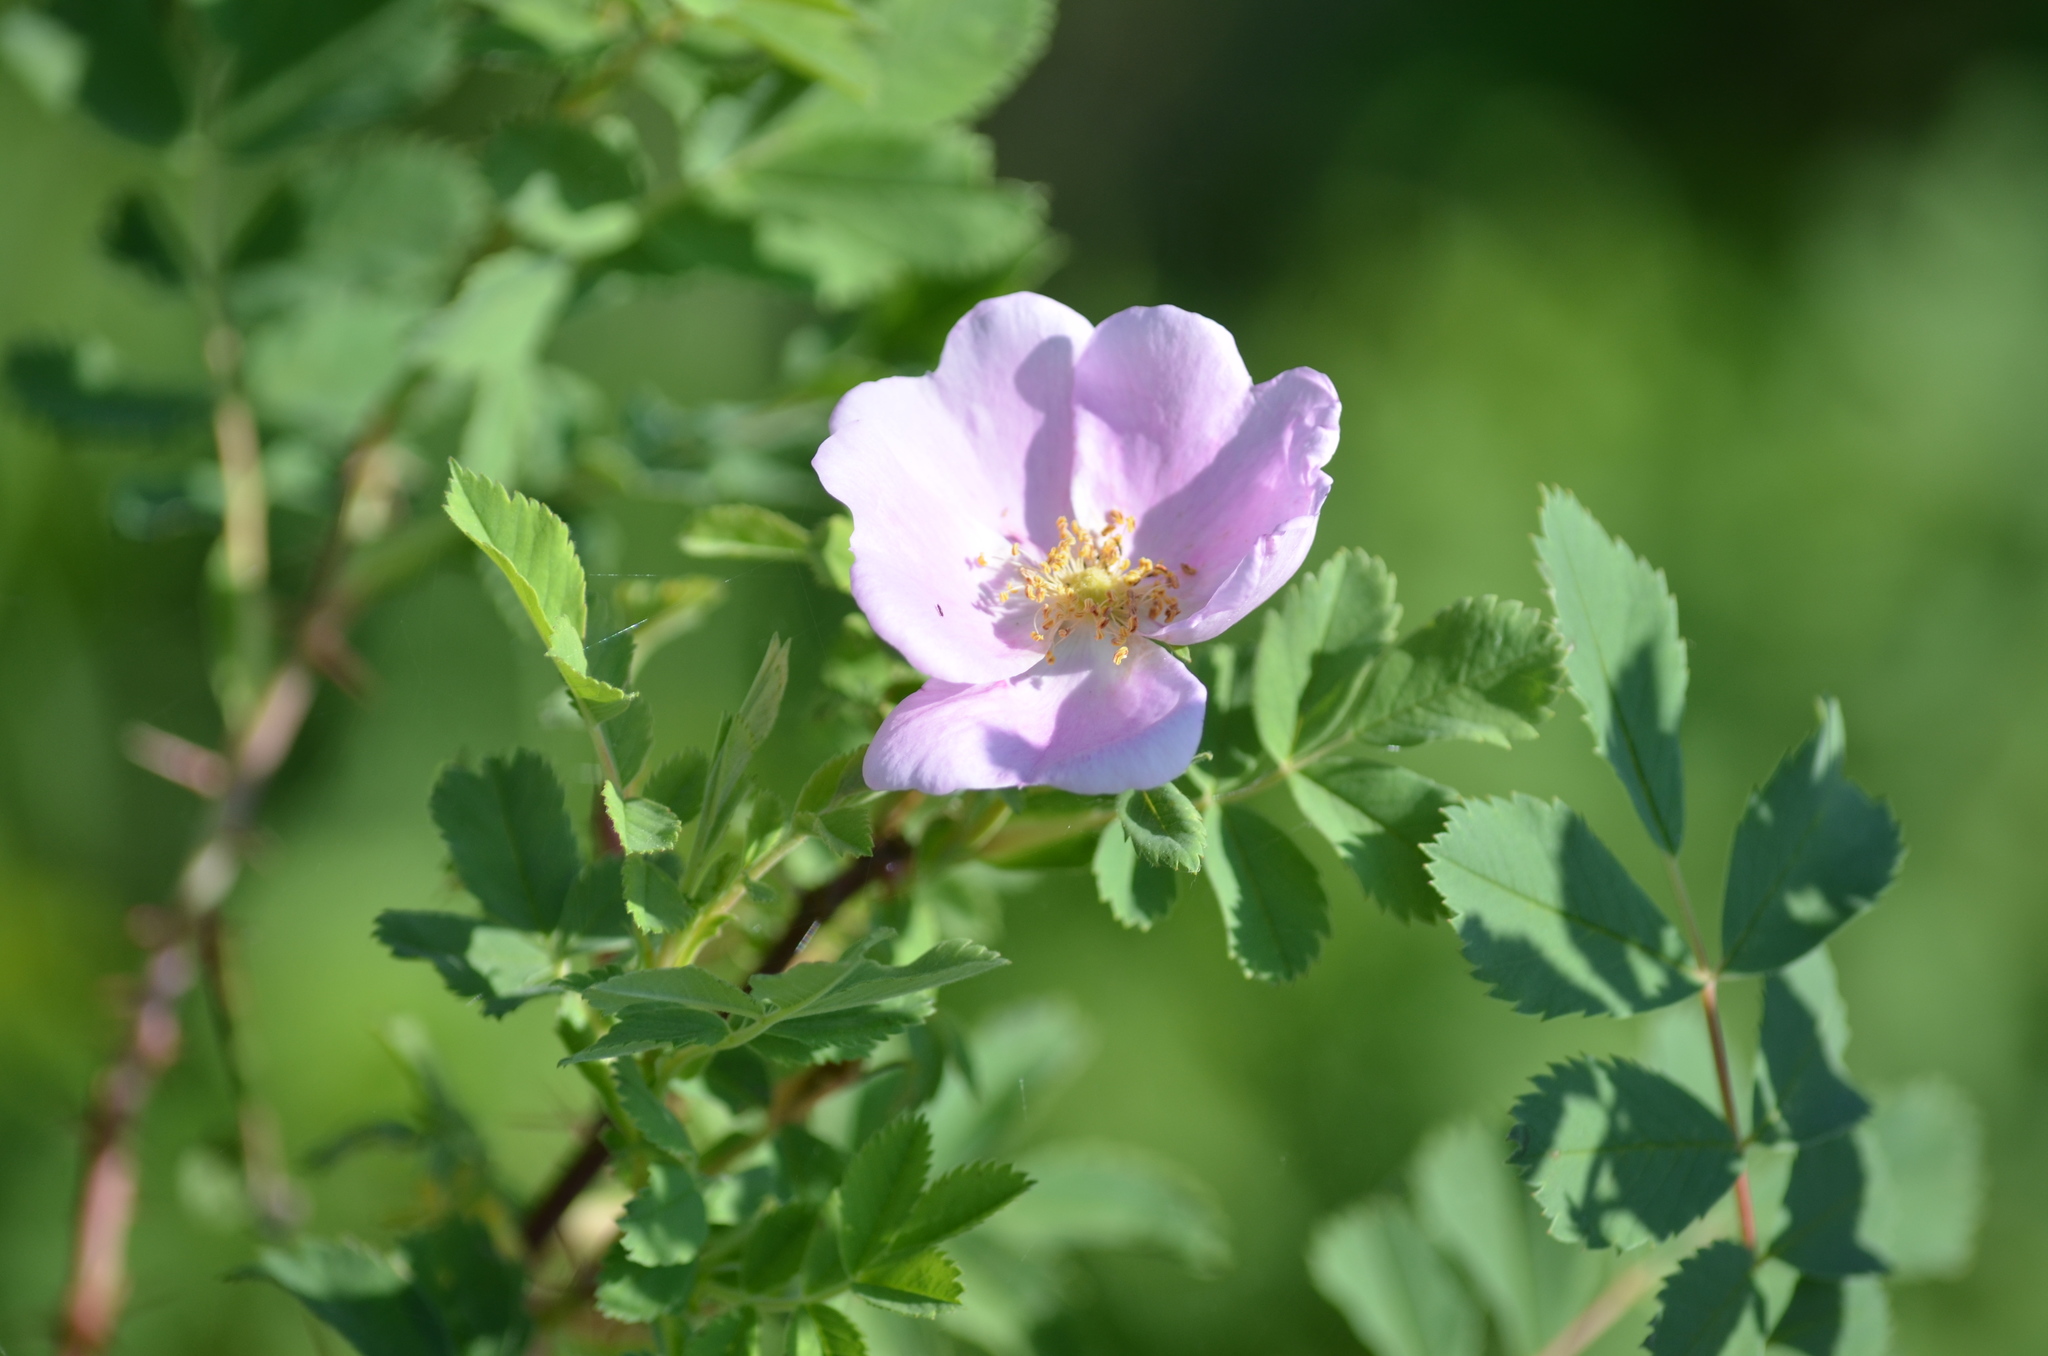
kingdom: Plantae
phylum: Tracheophyta
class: Magnoliopsida
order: Rosales
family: Rosaceae
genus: Rosa
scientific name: Rosa woodsii
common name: Woods's rose
